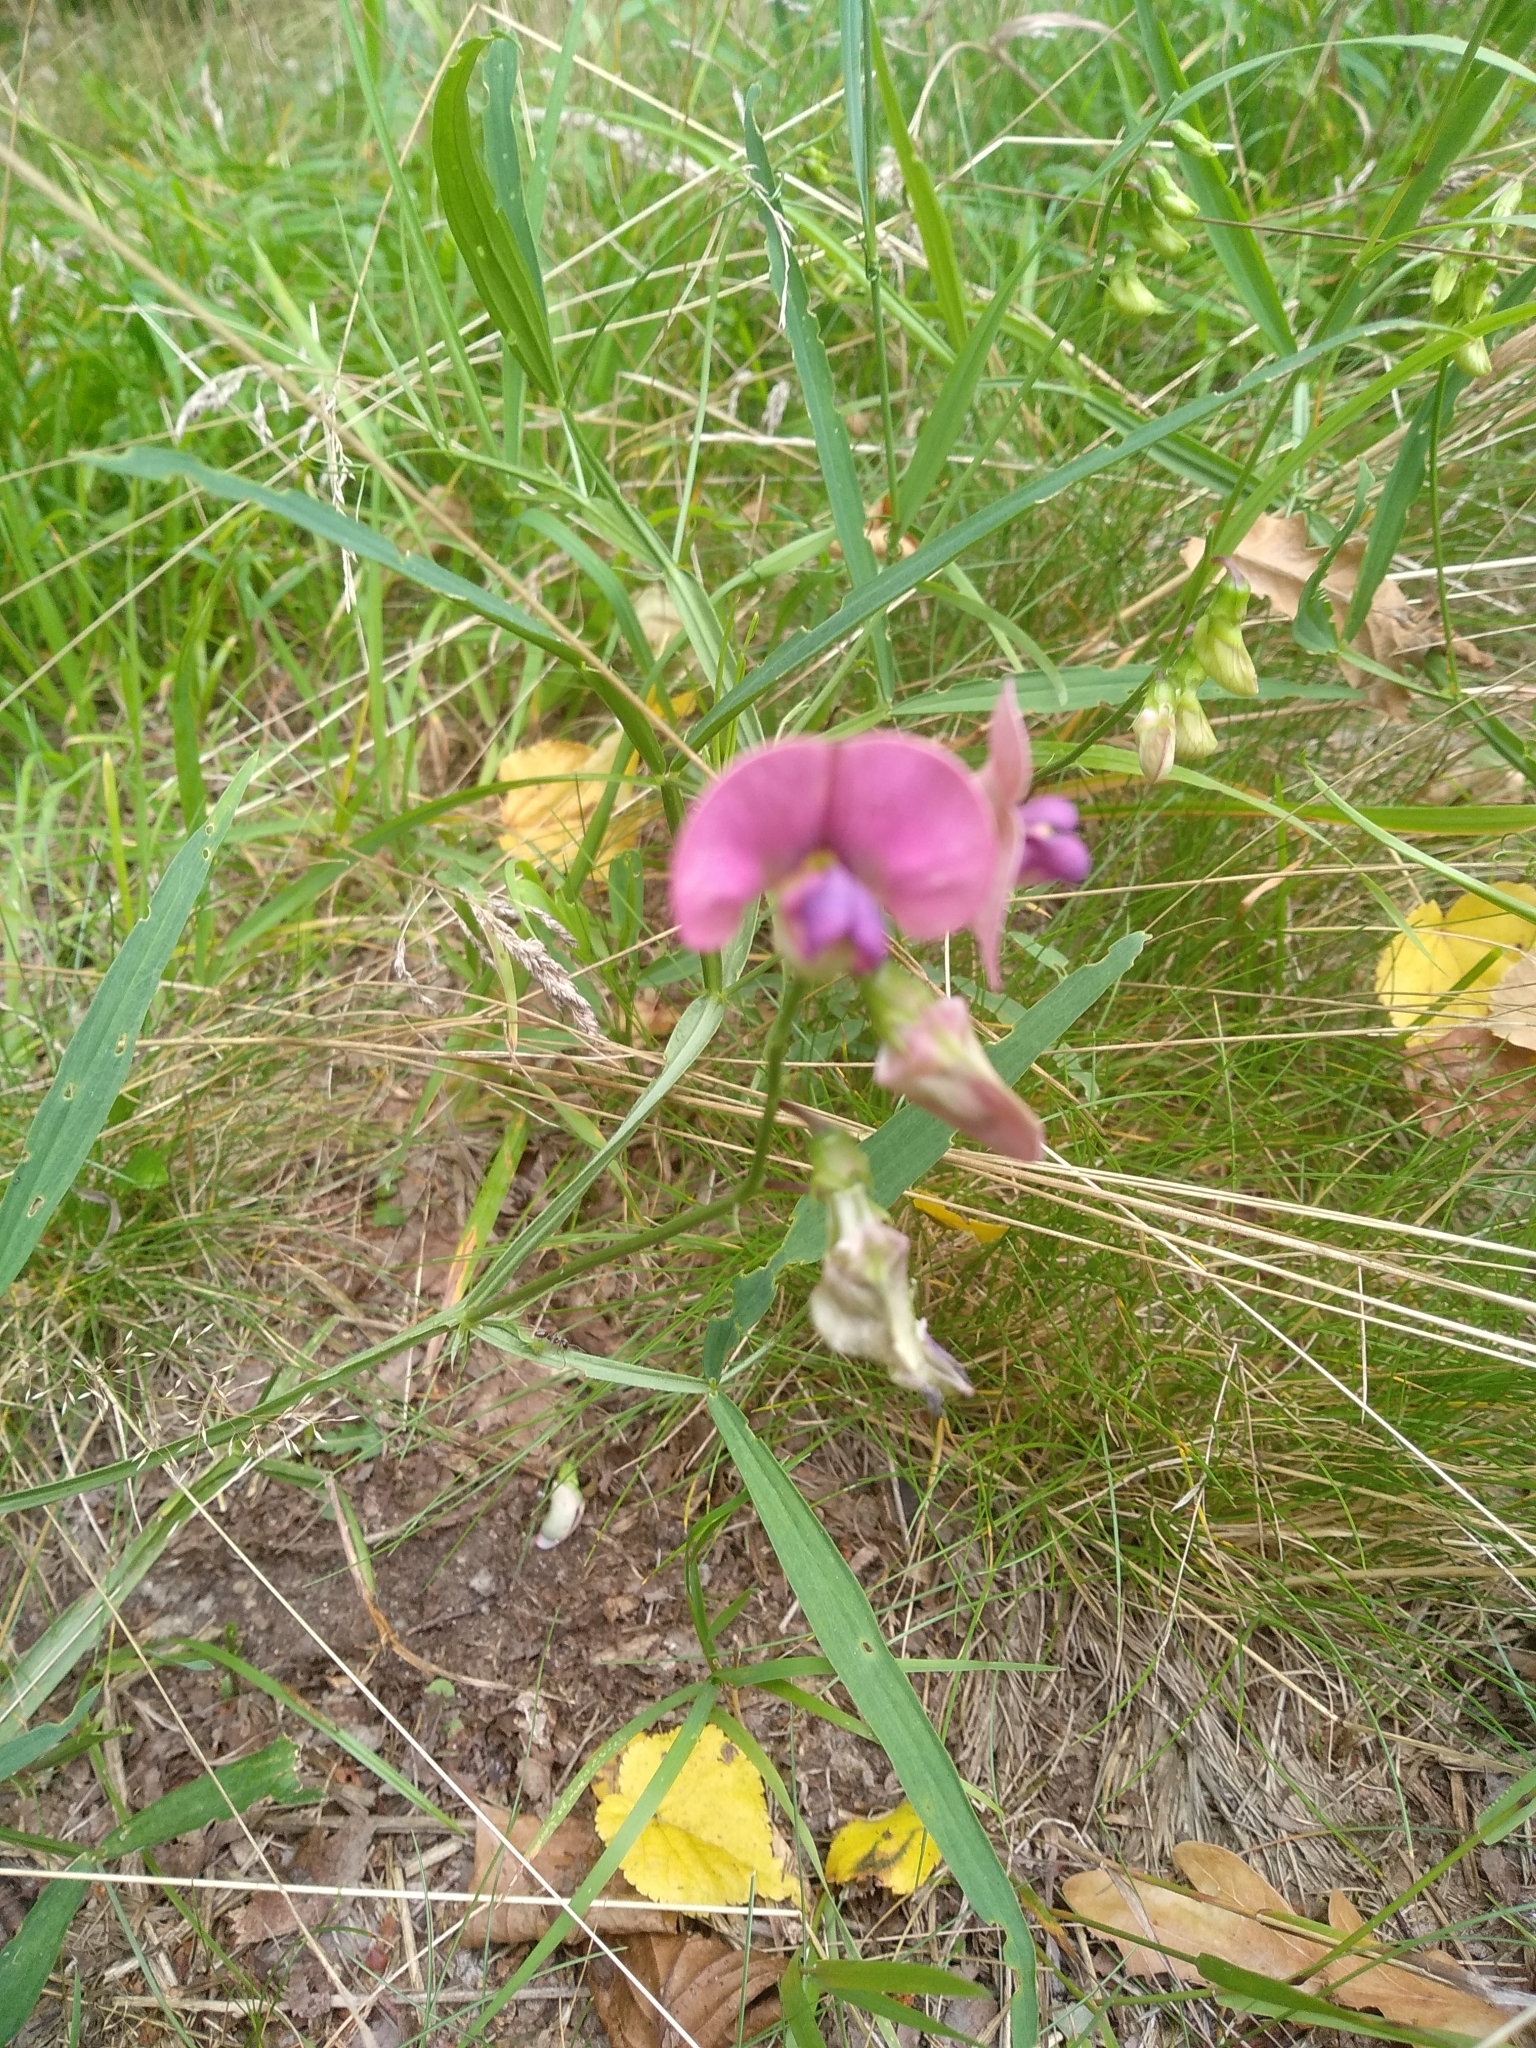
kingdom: Plantae
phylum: Tracheophyta
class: Magnoliopsida
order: Fabales
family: Fabaceae
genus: Lathyrus
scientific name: Lathyrus sylvestris
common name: Flat pea
